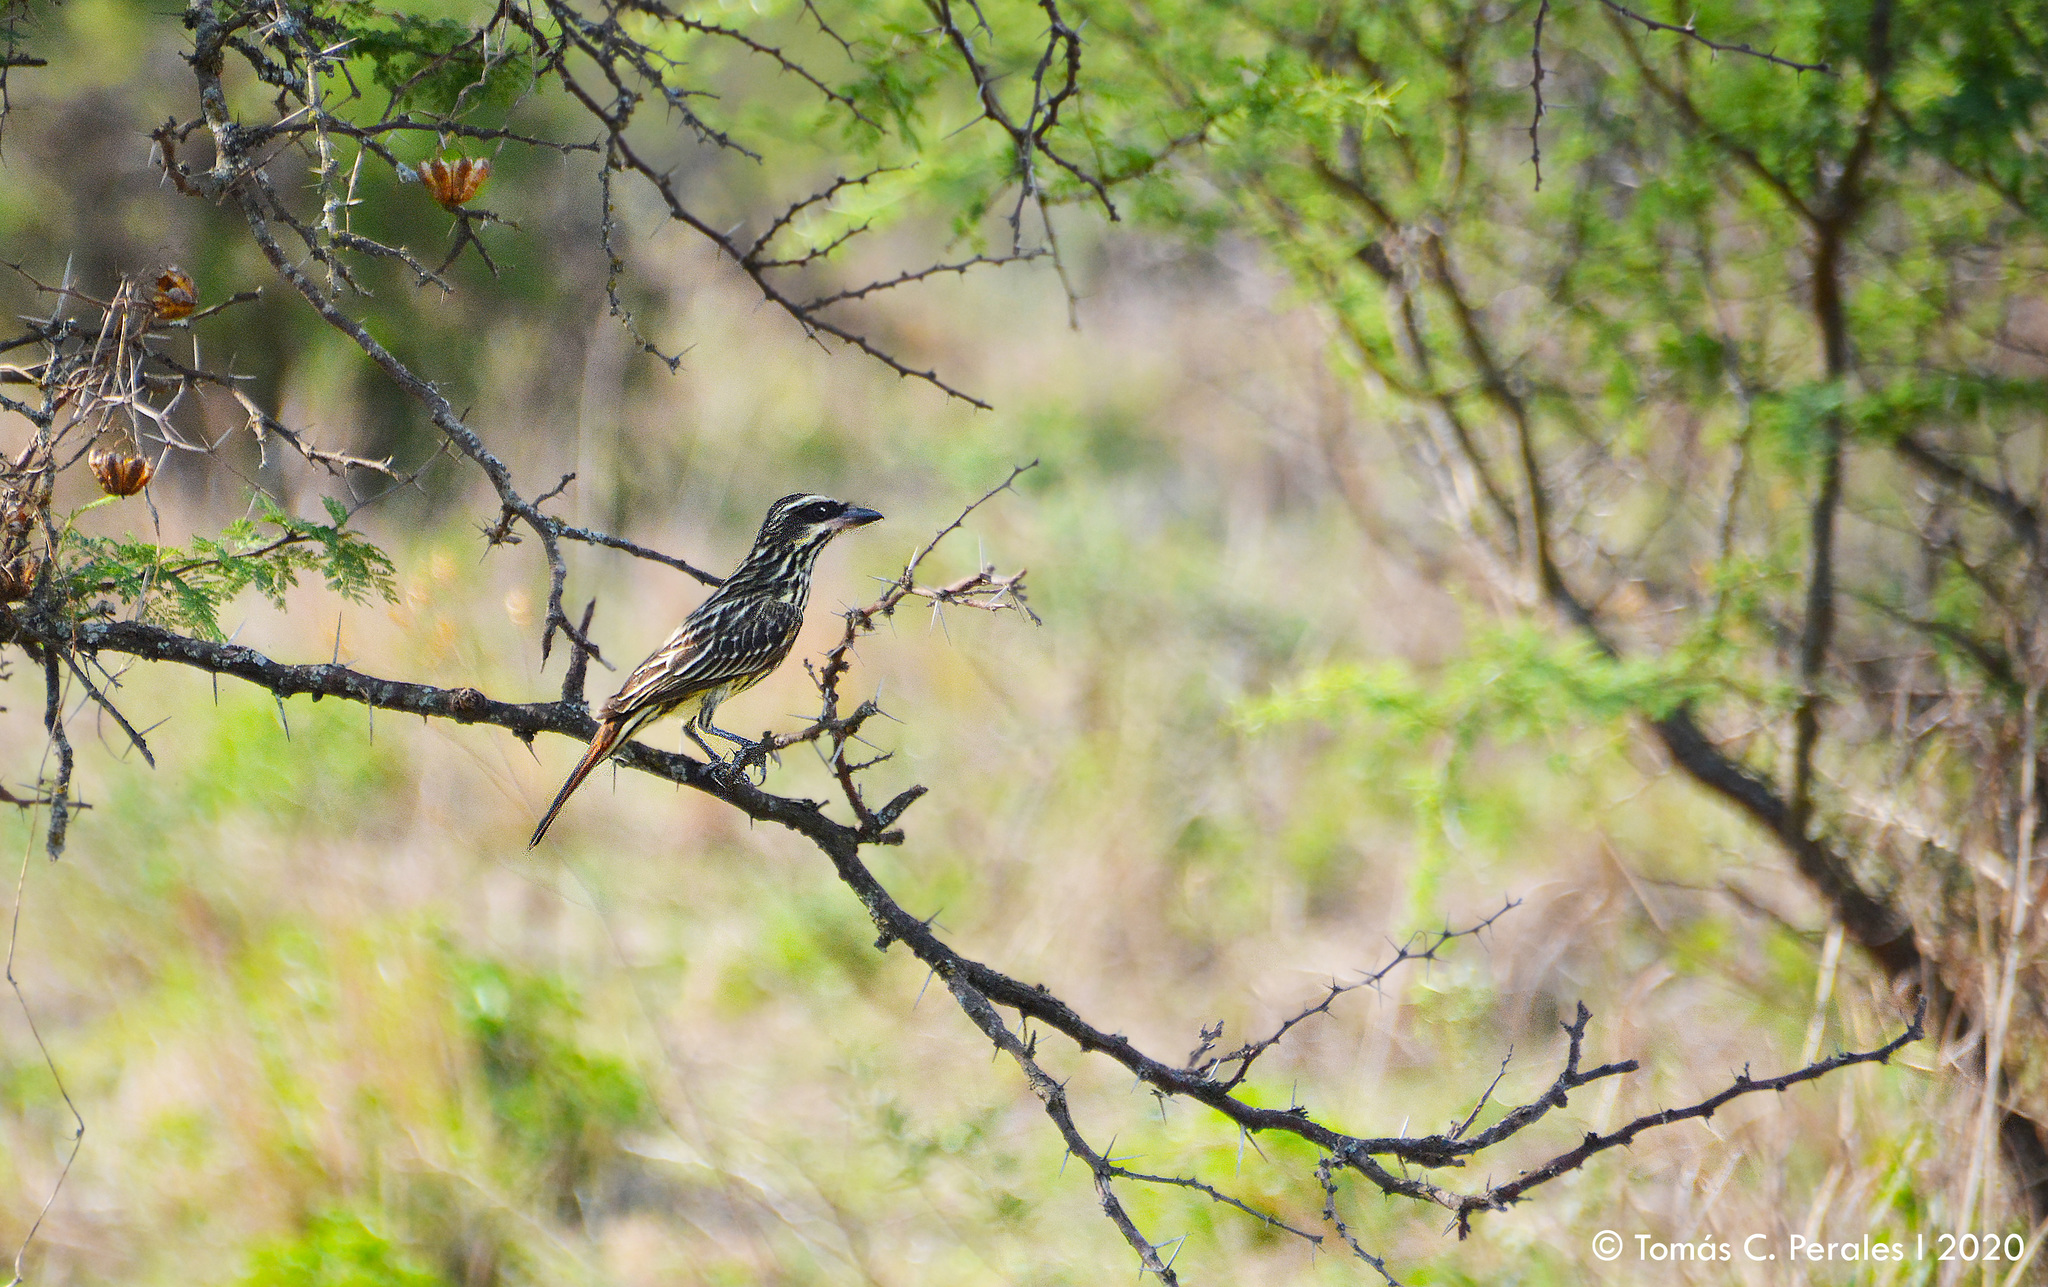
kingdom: Animalia
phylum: Chordata
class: Aves
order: Passeriformes
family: Tyrannidae
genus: Myiodynastes
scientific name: Myiodynastes maculatus
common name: Streaked flycatcher
